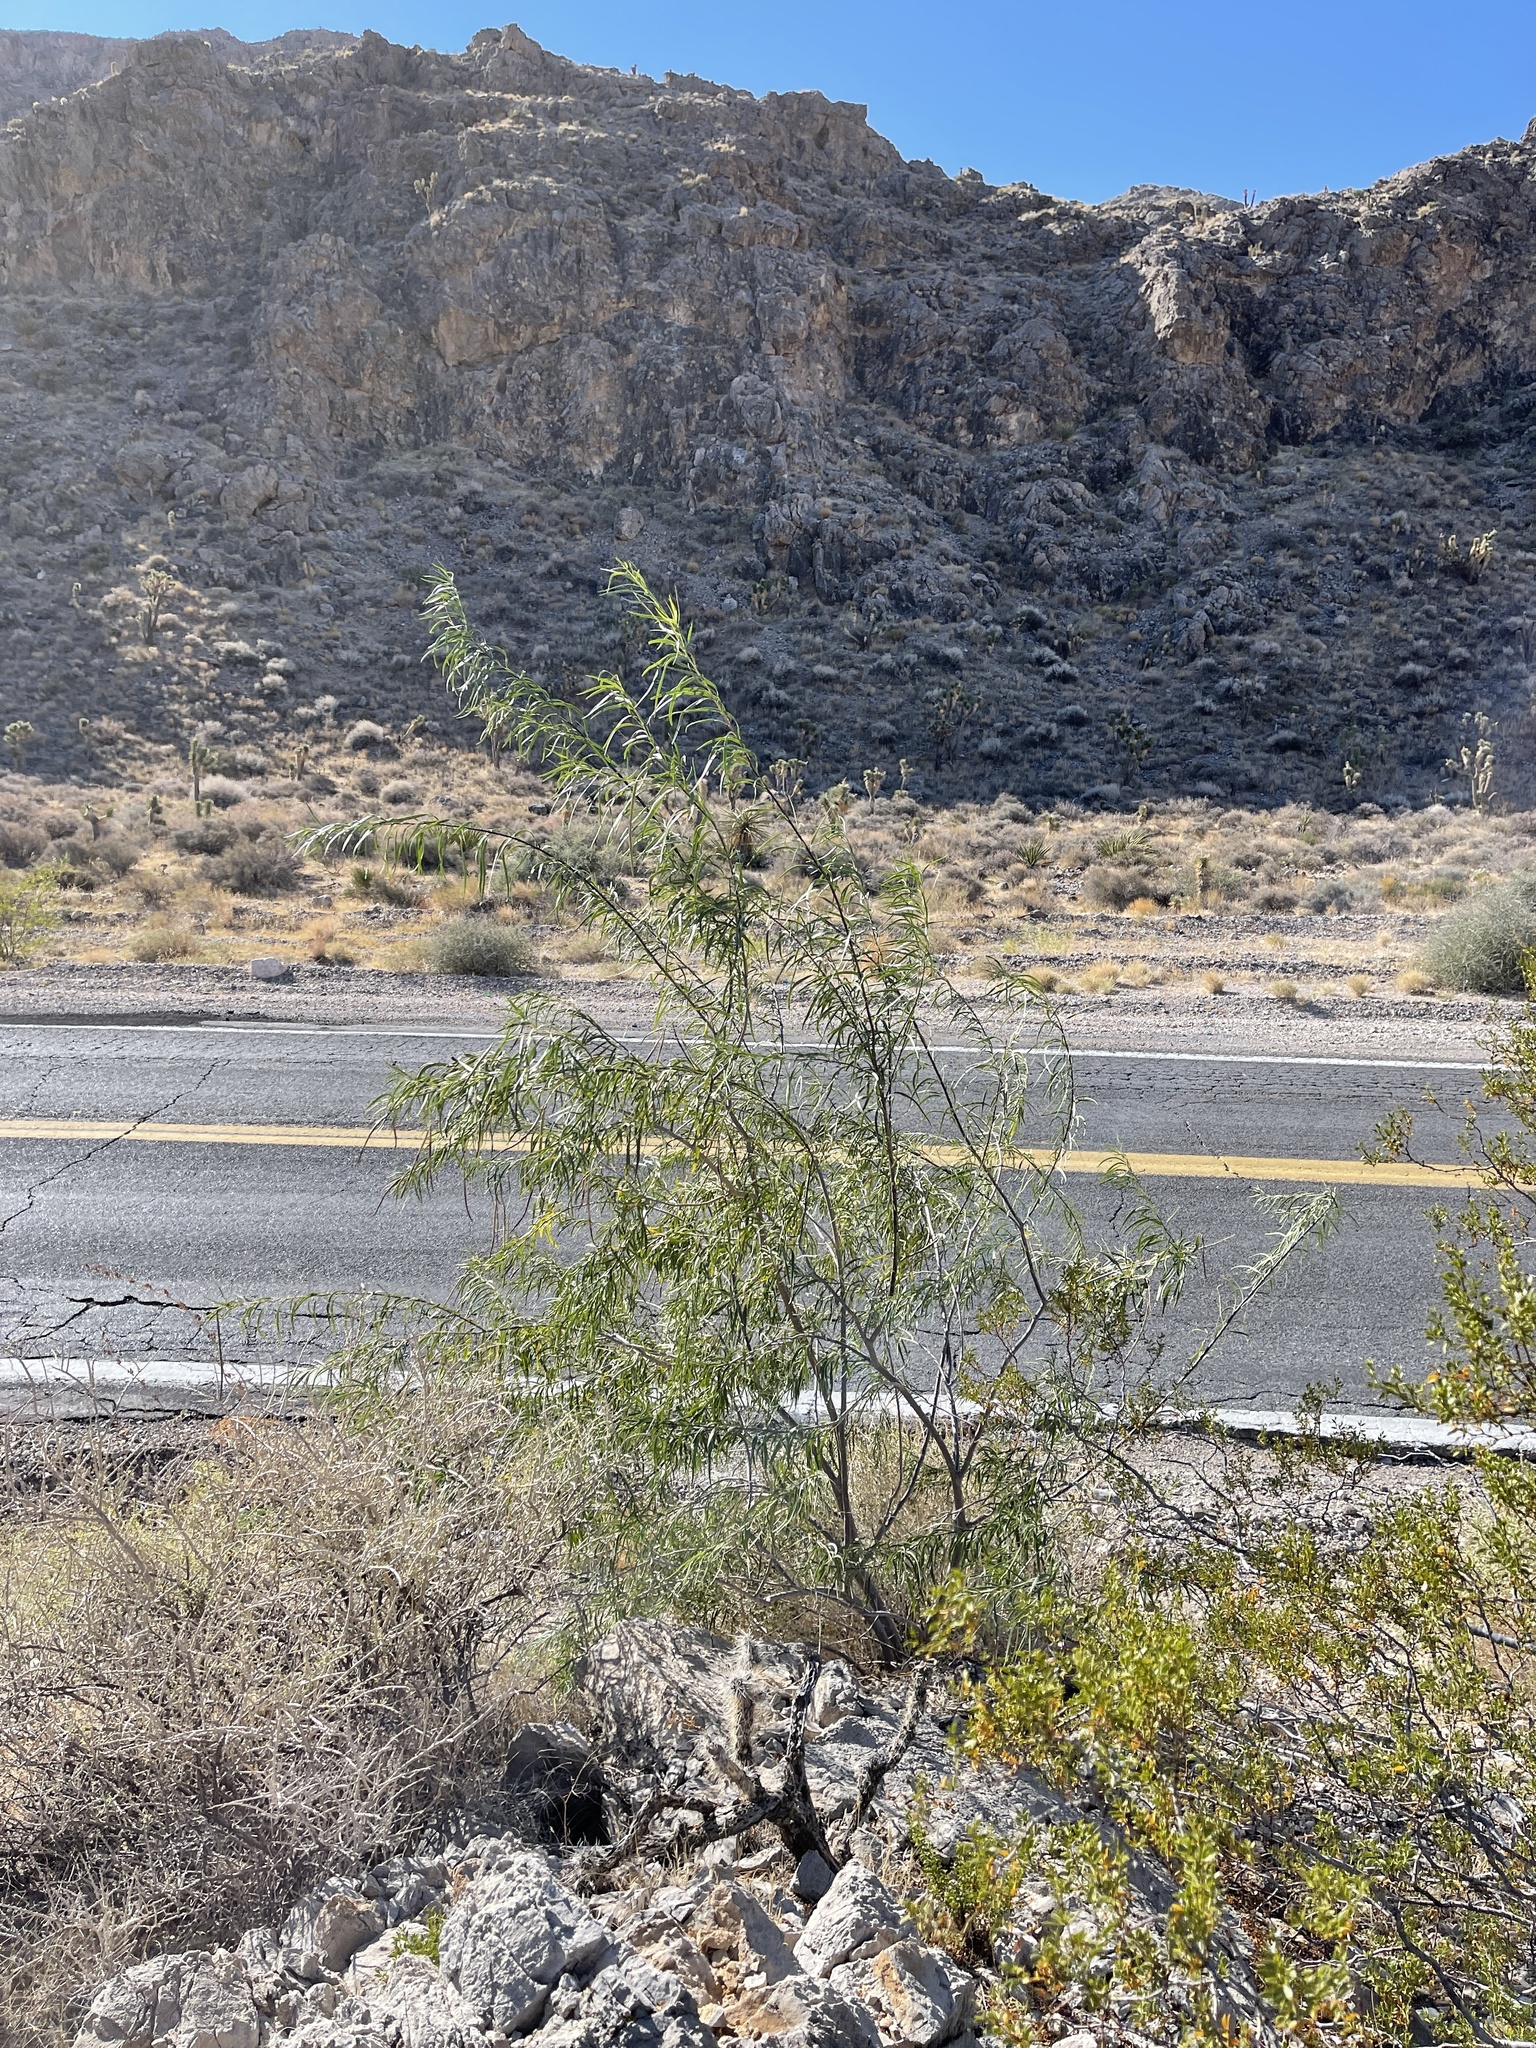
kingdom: Plantae
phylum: Tracheophyta
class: Magnoliopsida
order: Lamiales
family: Bignoniaceae
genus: Chilopsis
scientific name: Chilopsis linearis
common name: Desert-willow
